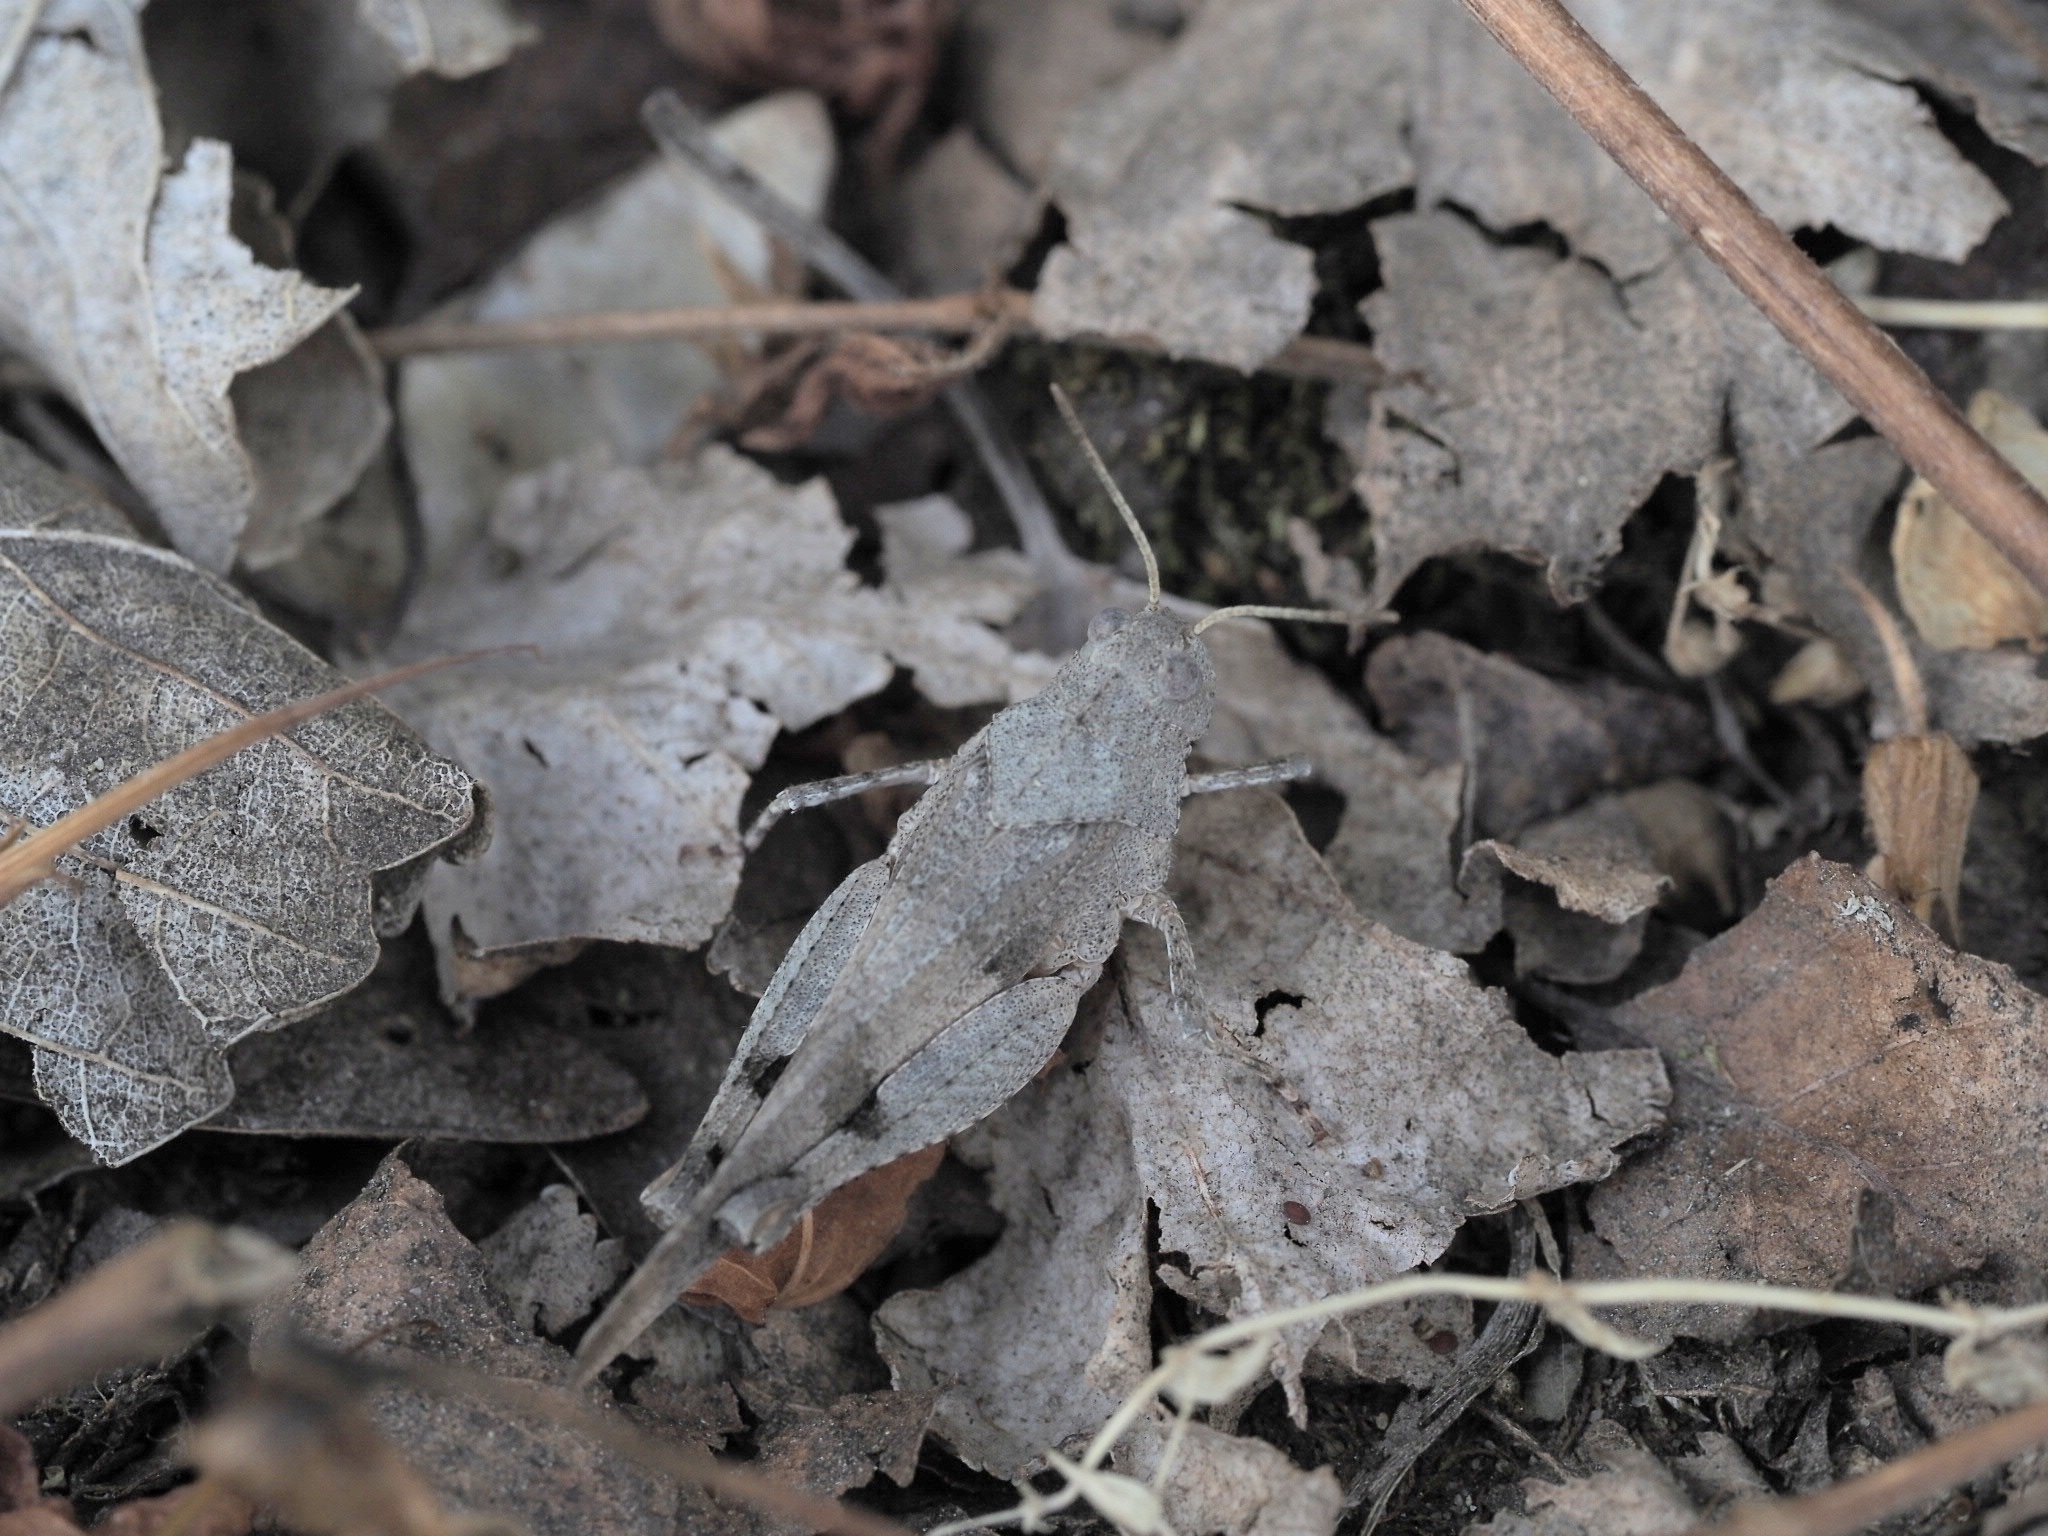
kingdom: Animalia
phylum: Arthropoda
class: Insecta
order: Orthoptera
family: Acrididae
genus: Oedipoda
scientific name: Oedipoda caerulescens
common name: Blue-winged grasshopper
